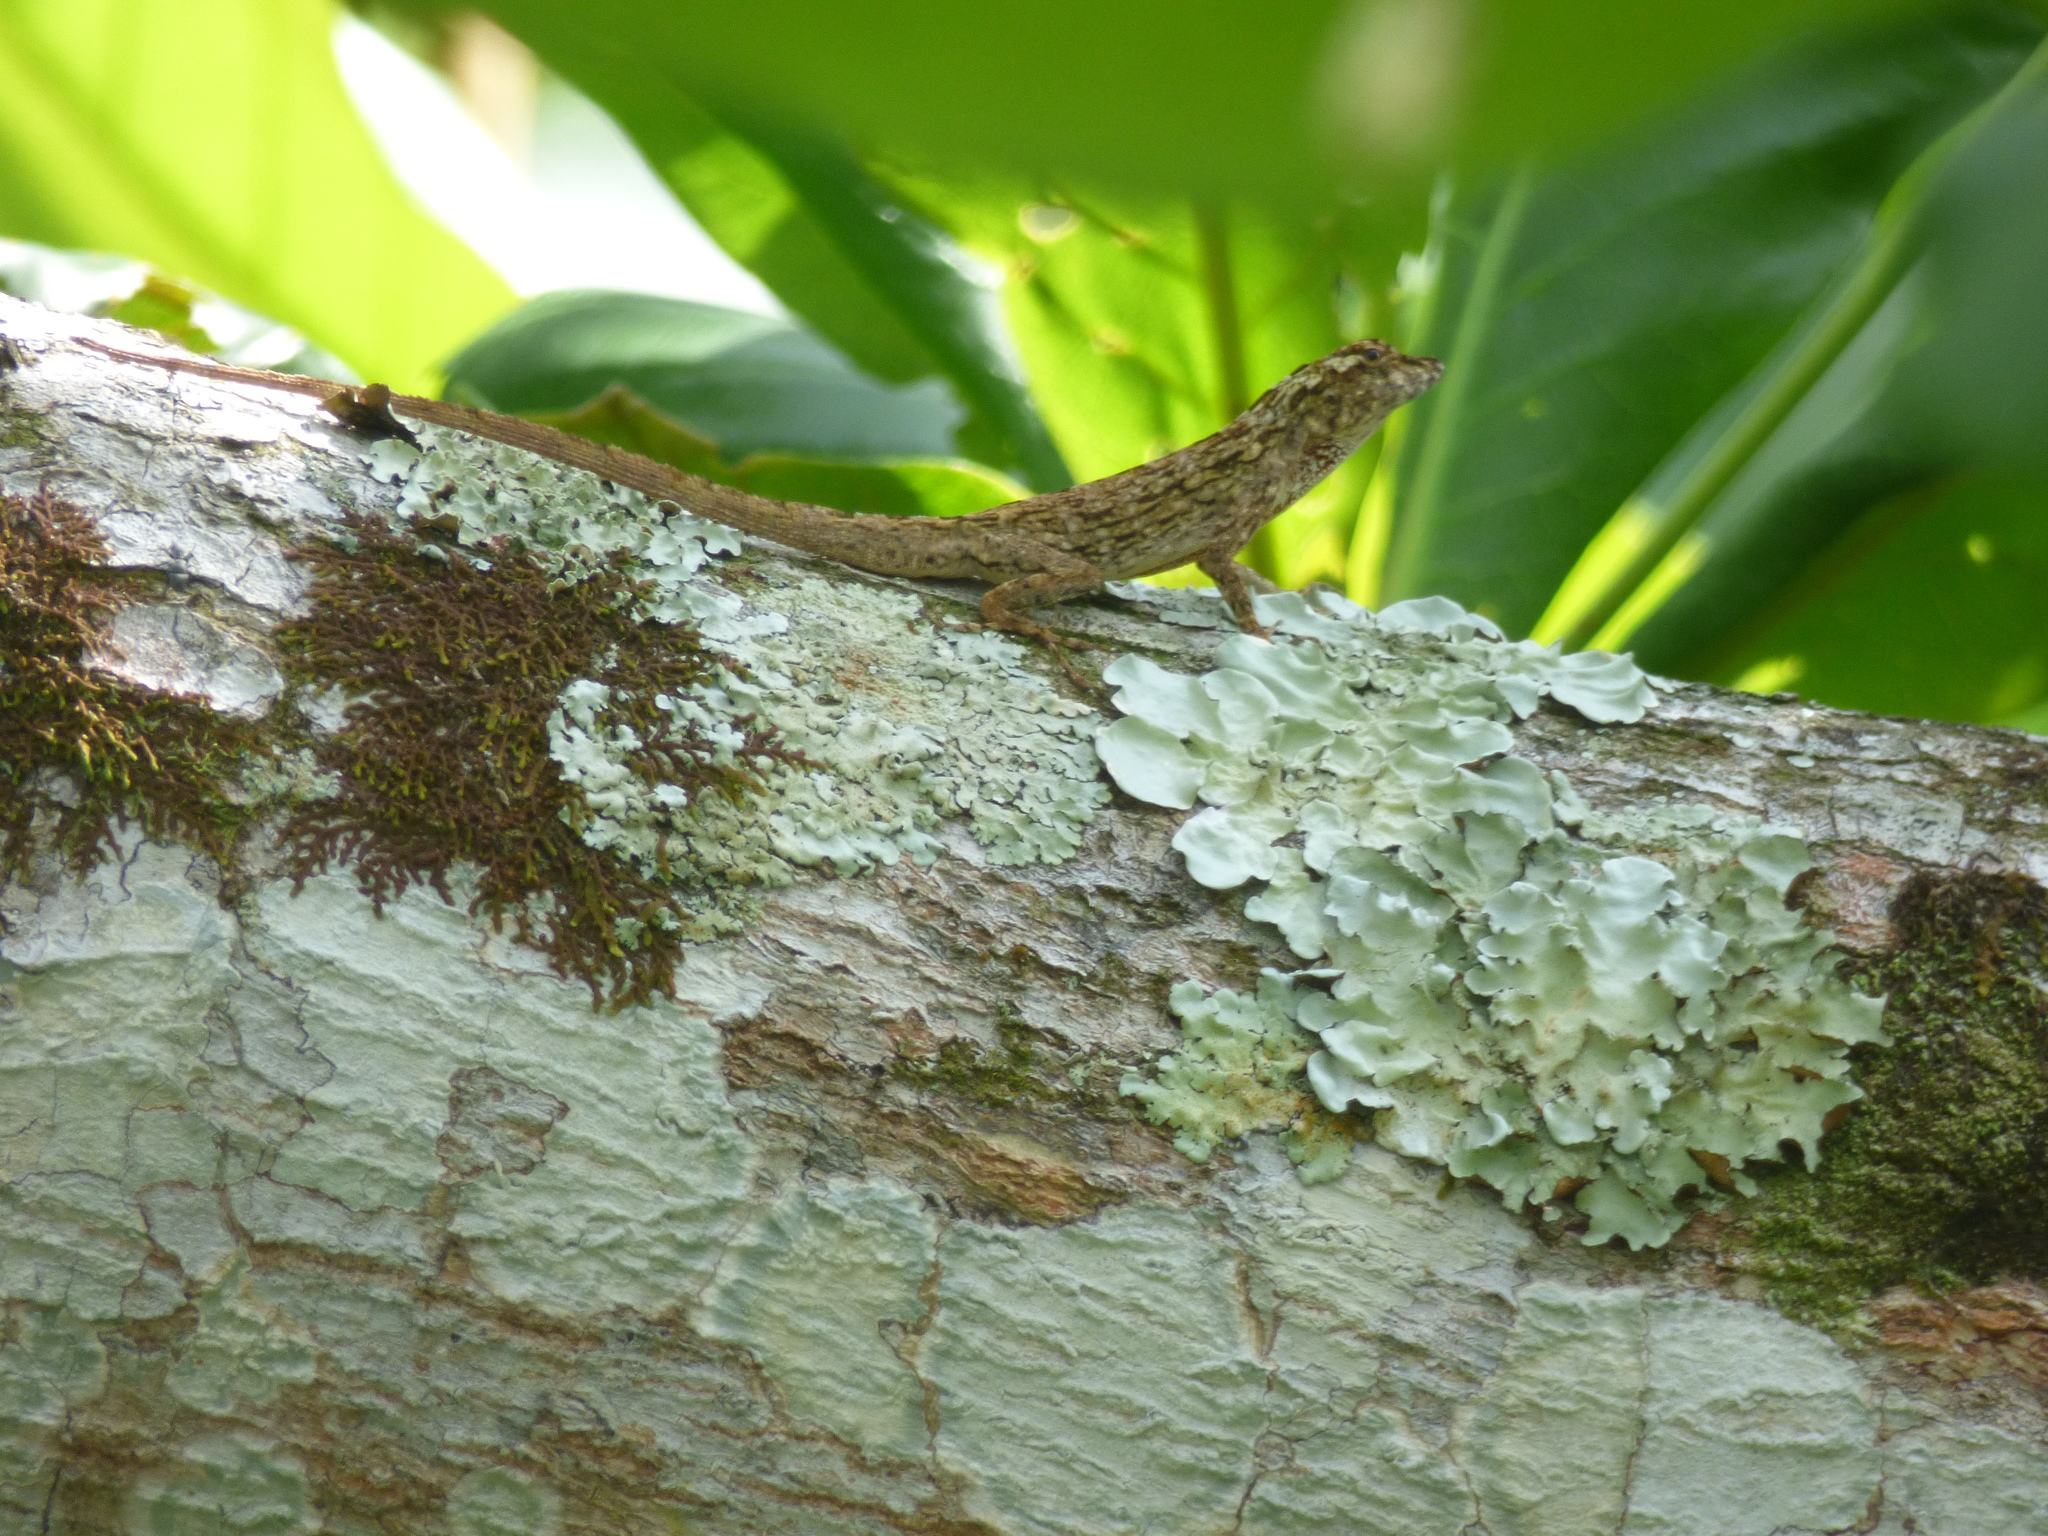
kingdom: Animalia
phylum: Chordata
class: Squamata
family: Dactyloidae
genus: Anolis
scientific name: Anolis sulcifrons
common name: Grooved anole
